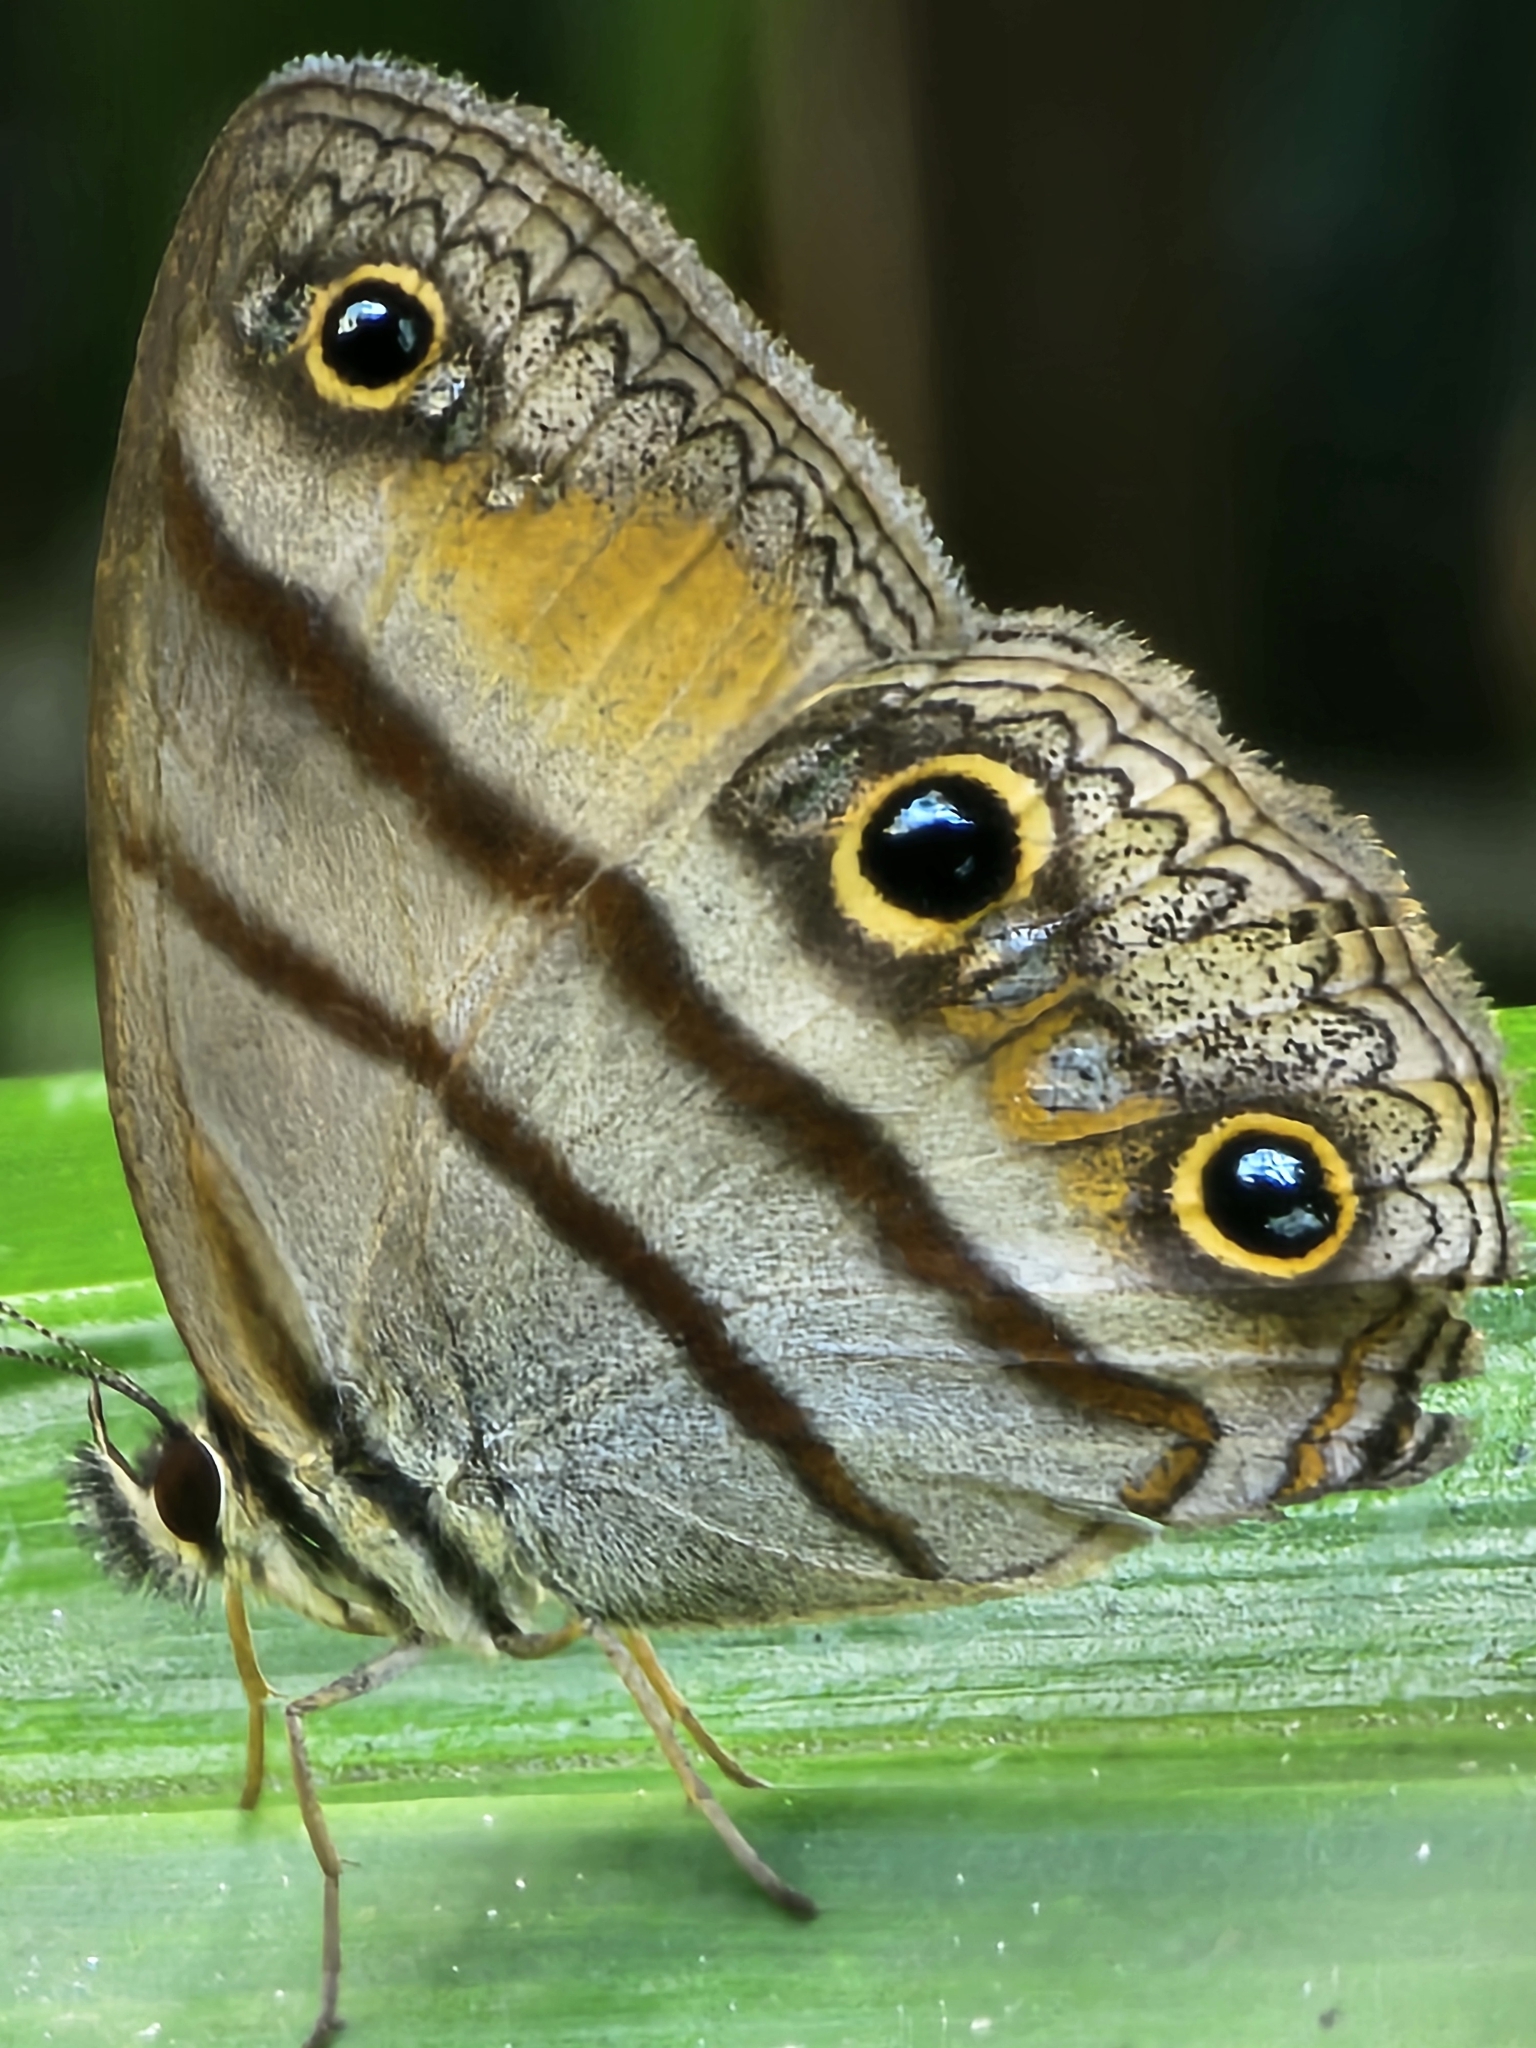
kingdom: Animalia
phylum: Arthropoda
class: Insecta
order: Lepidoptera
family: Nymphalidae
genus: Argyreuptychia
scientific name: Argyreuptychia penelope
